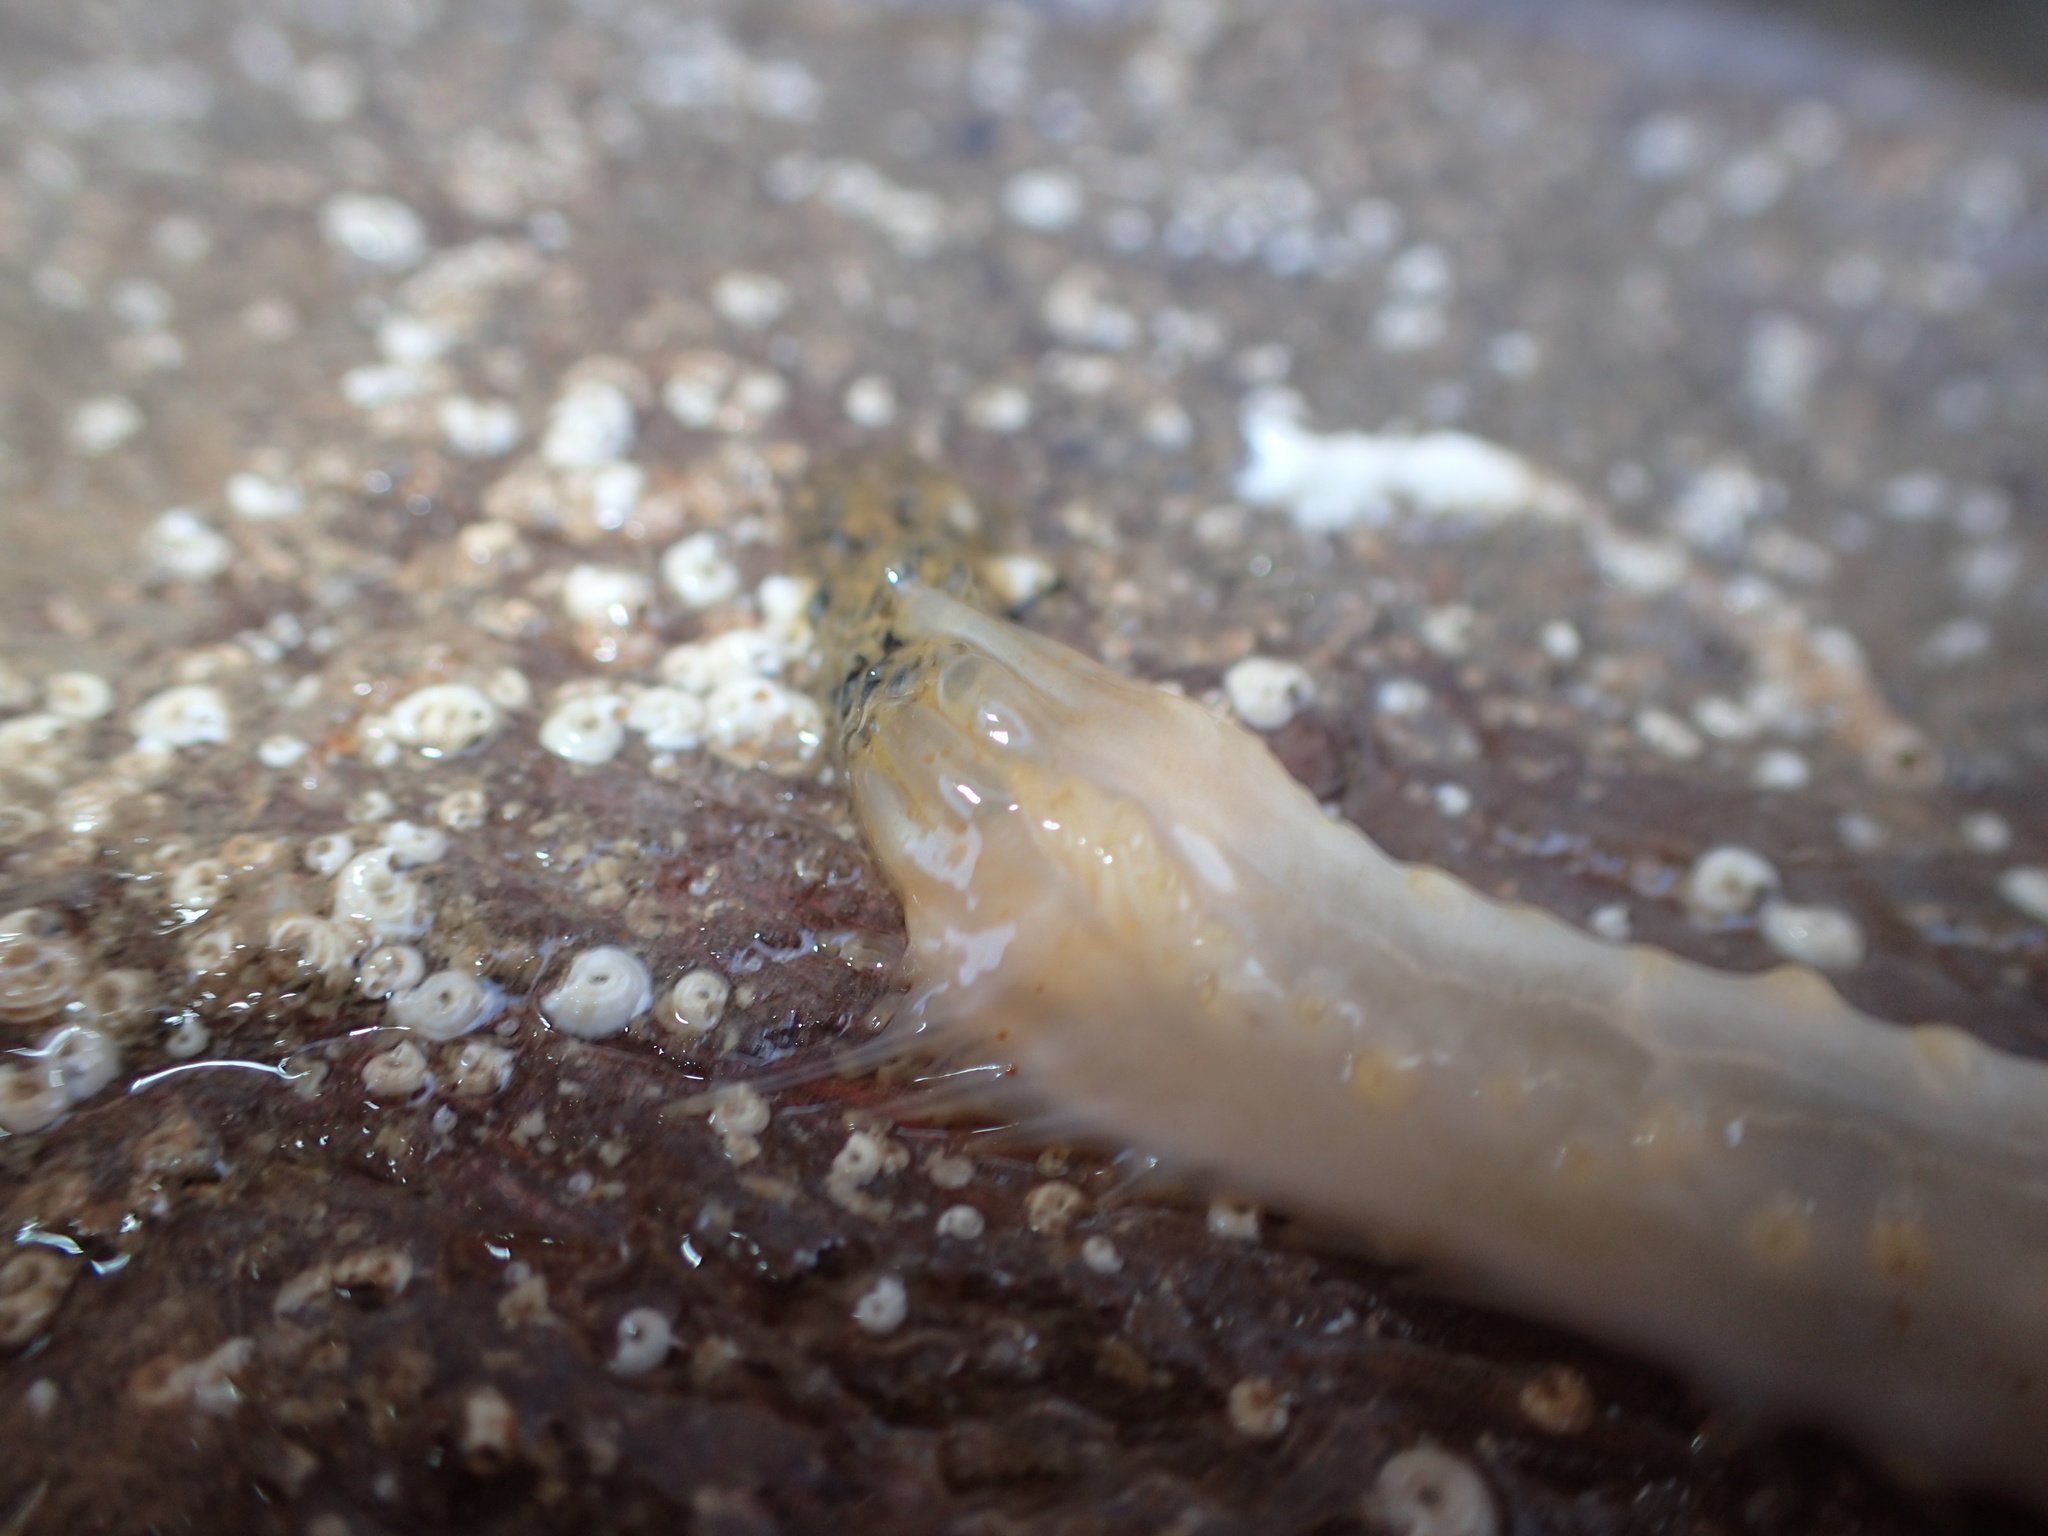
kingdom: Animalia
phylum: Echinodermata
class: Holothuroidea
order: Dendrochirotida
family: Cucumariidae
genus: Pawsonia
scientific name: Pawsonia saxicola
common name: Sea gherkin
